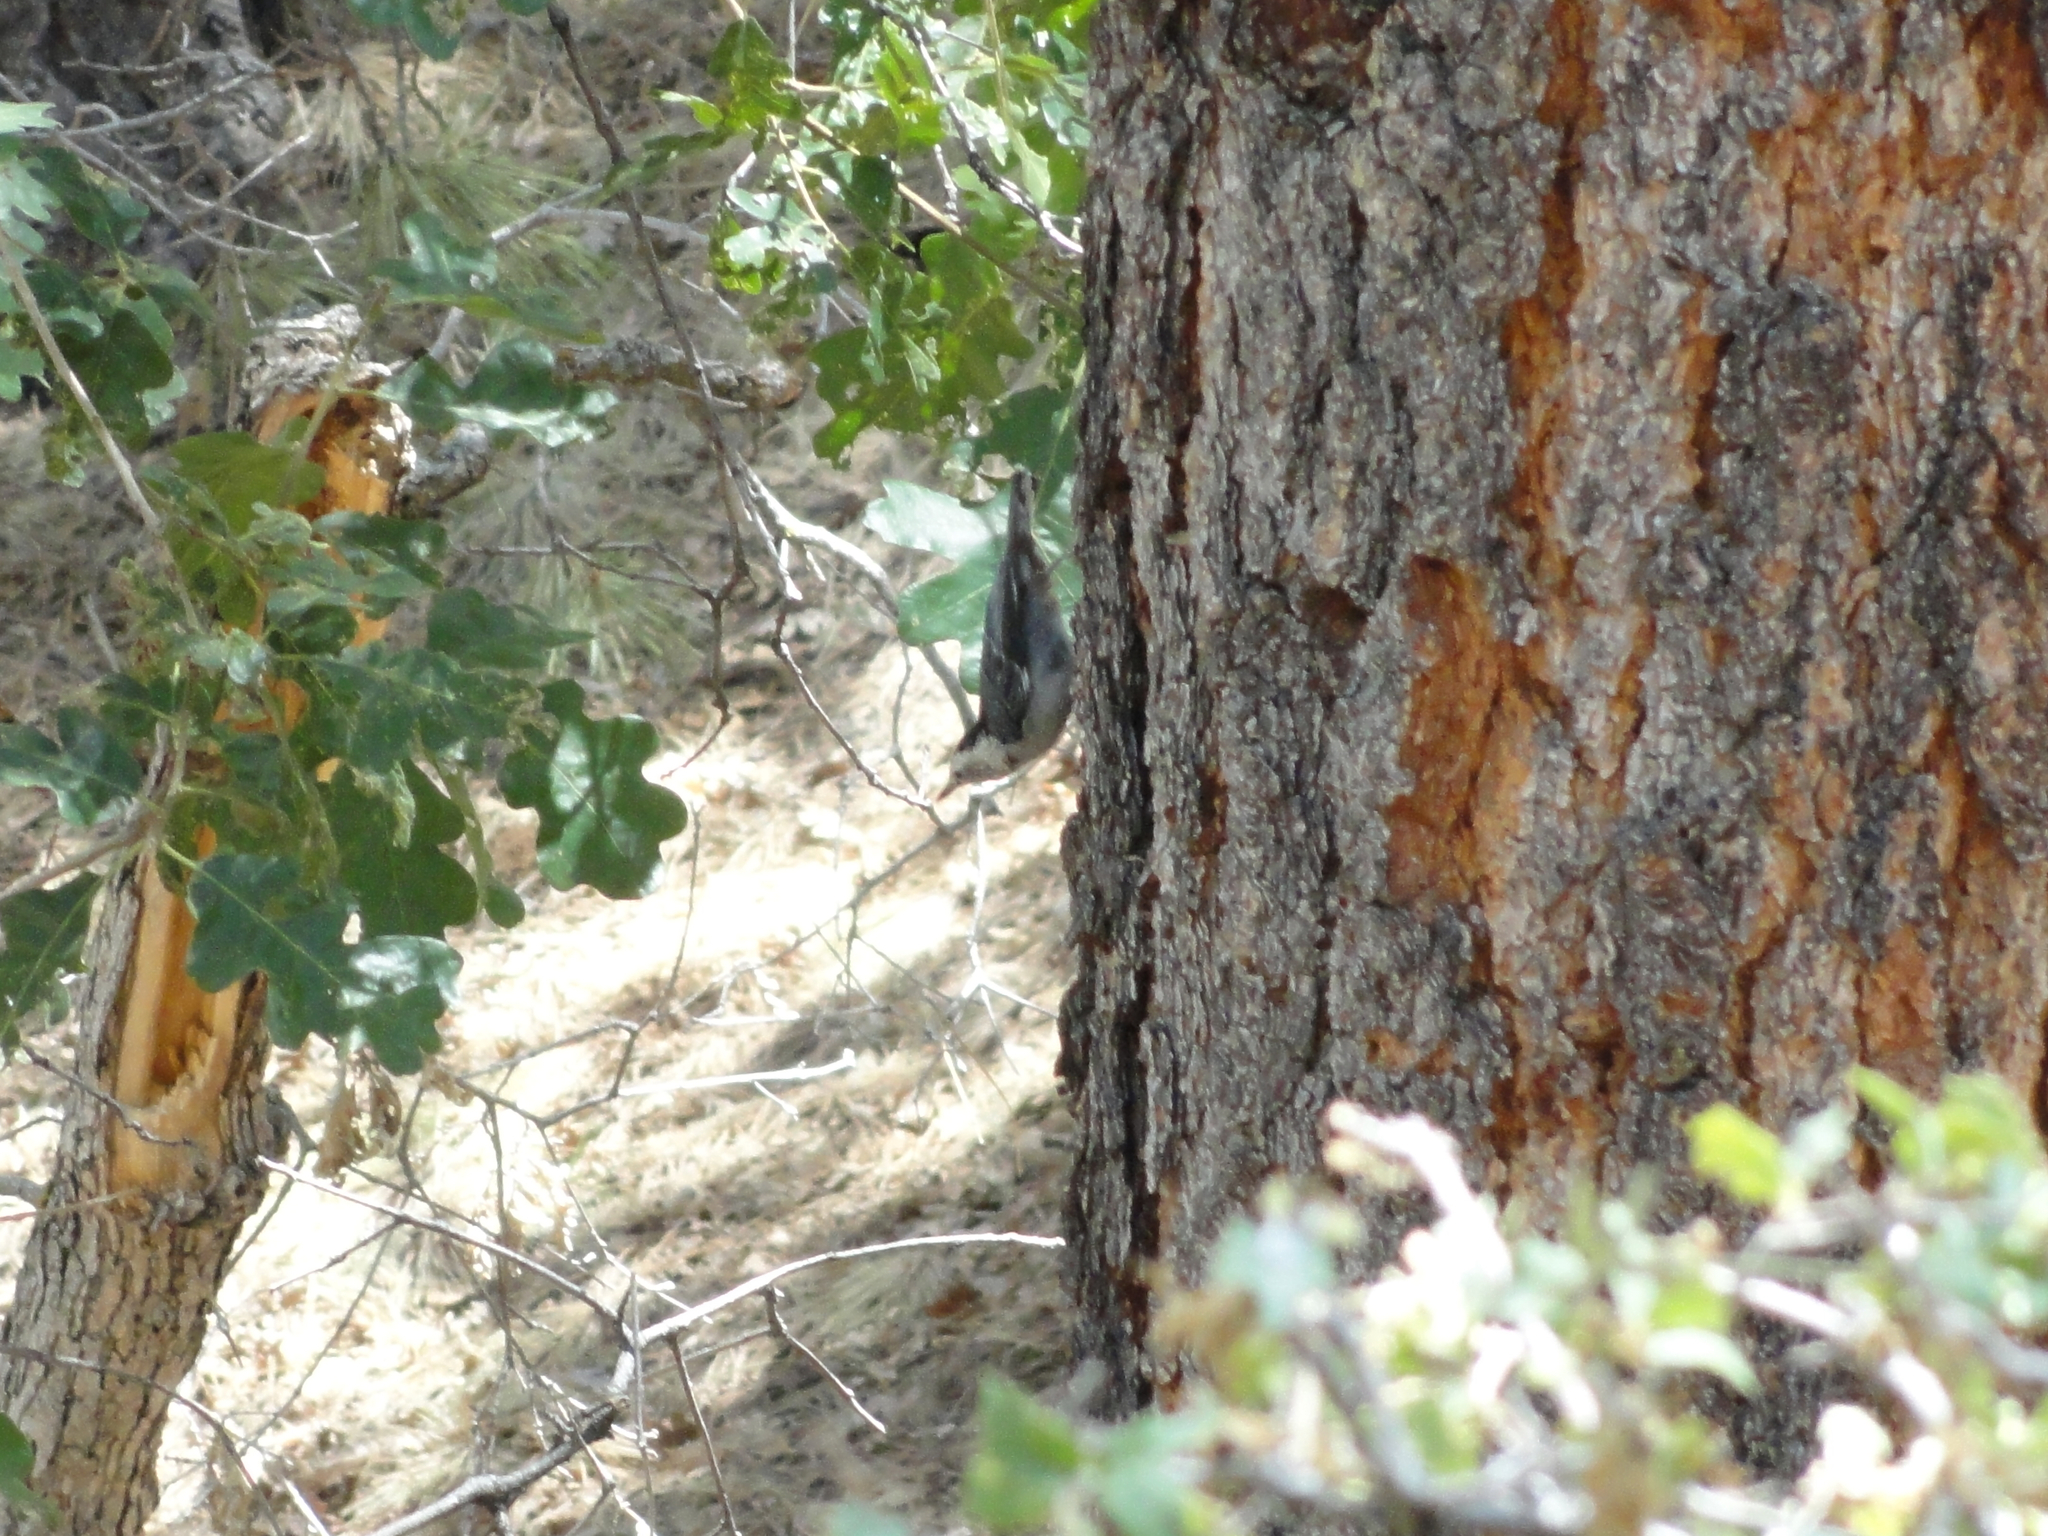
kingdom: Animalia
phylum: Chordata
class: Aves
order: Passeriformes
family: Sittidae
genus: Sitta
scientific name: Sitta carolinensis
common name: White-breasted nuthatch
